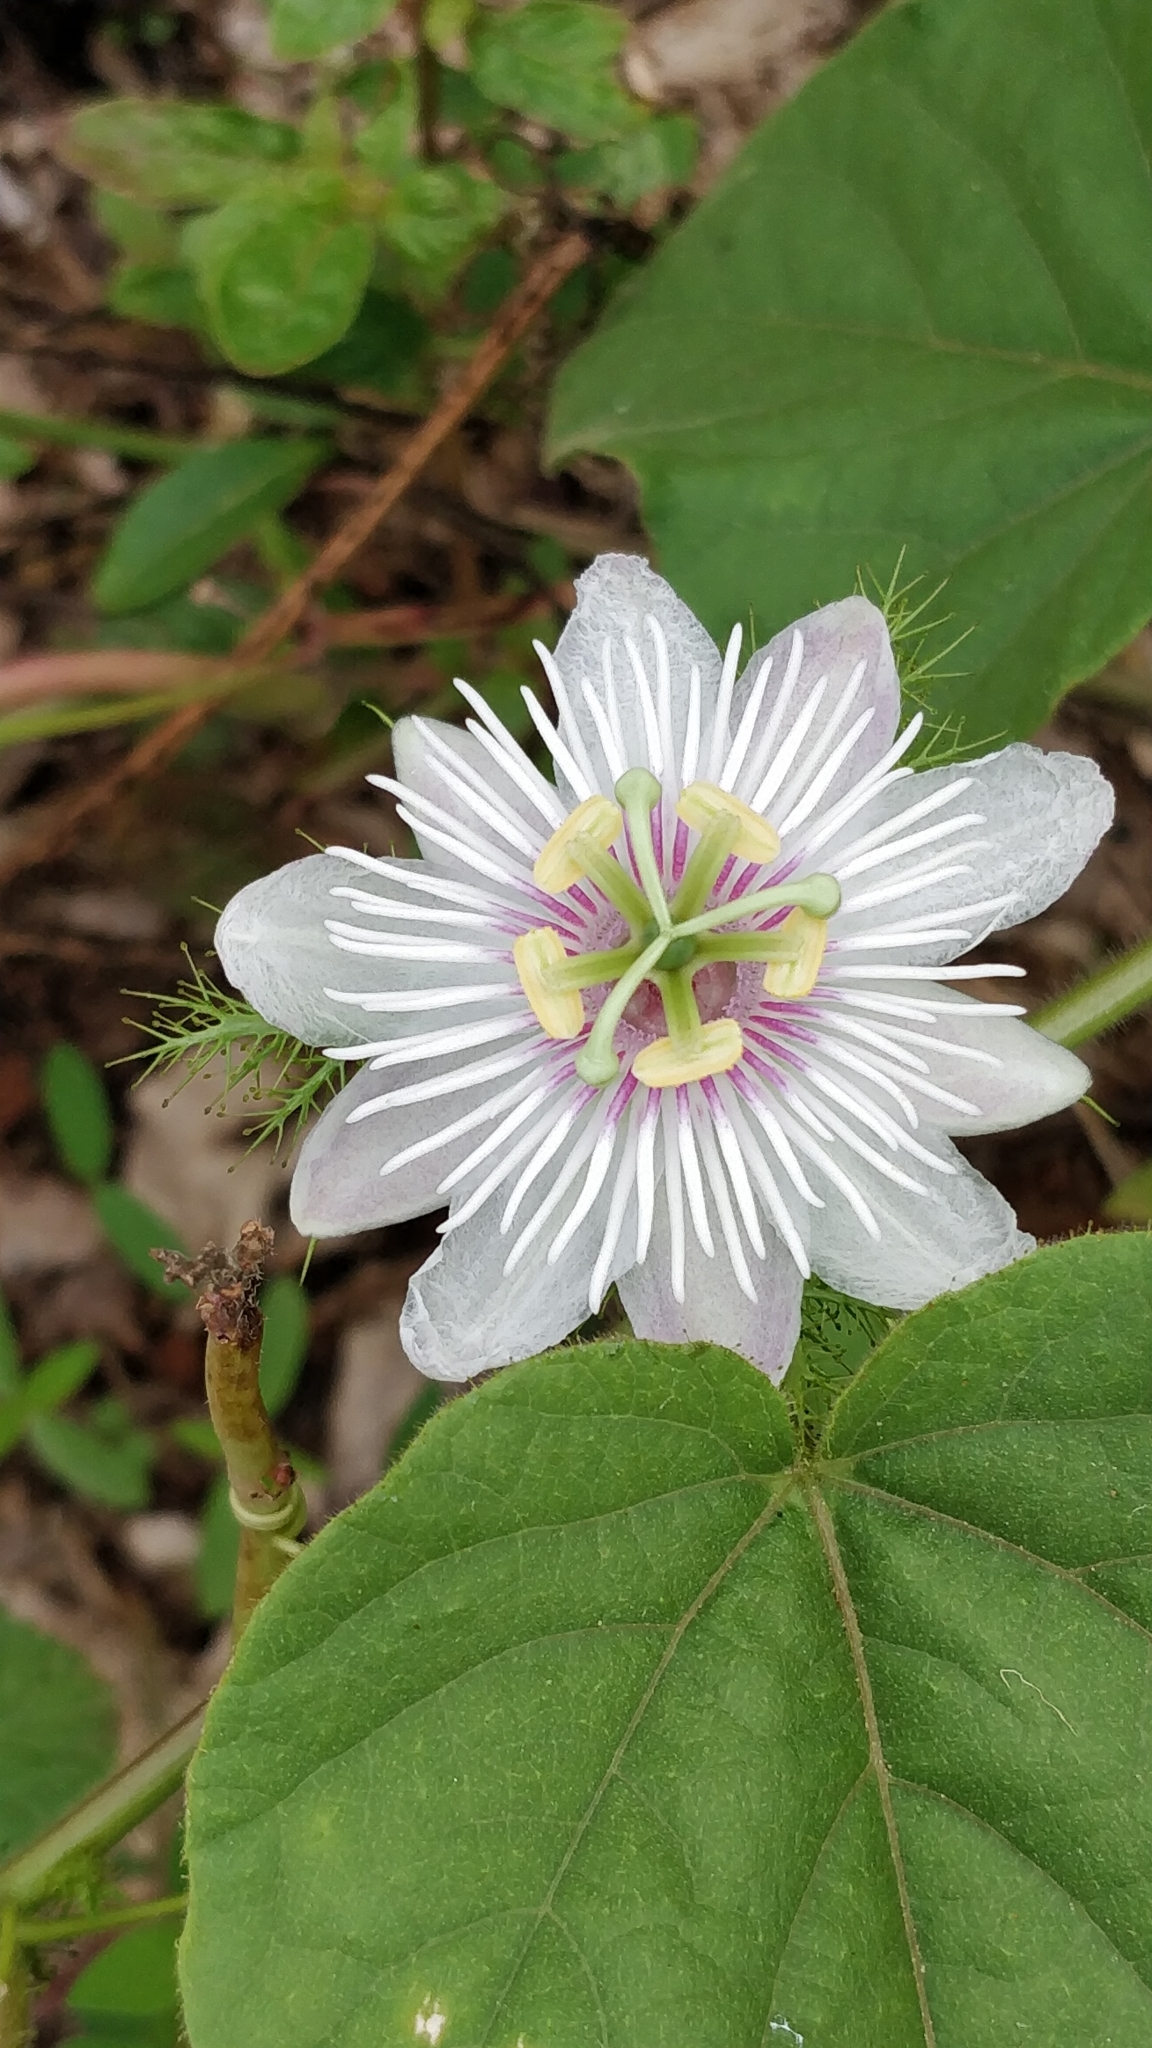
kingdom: Plantae
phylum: Tracheophyta
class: Magnoliopsida
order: Malpighiales
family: Passifloraceae
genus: Passiflora
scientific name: Passiflora foetida
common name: Fetid passionflower
